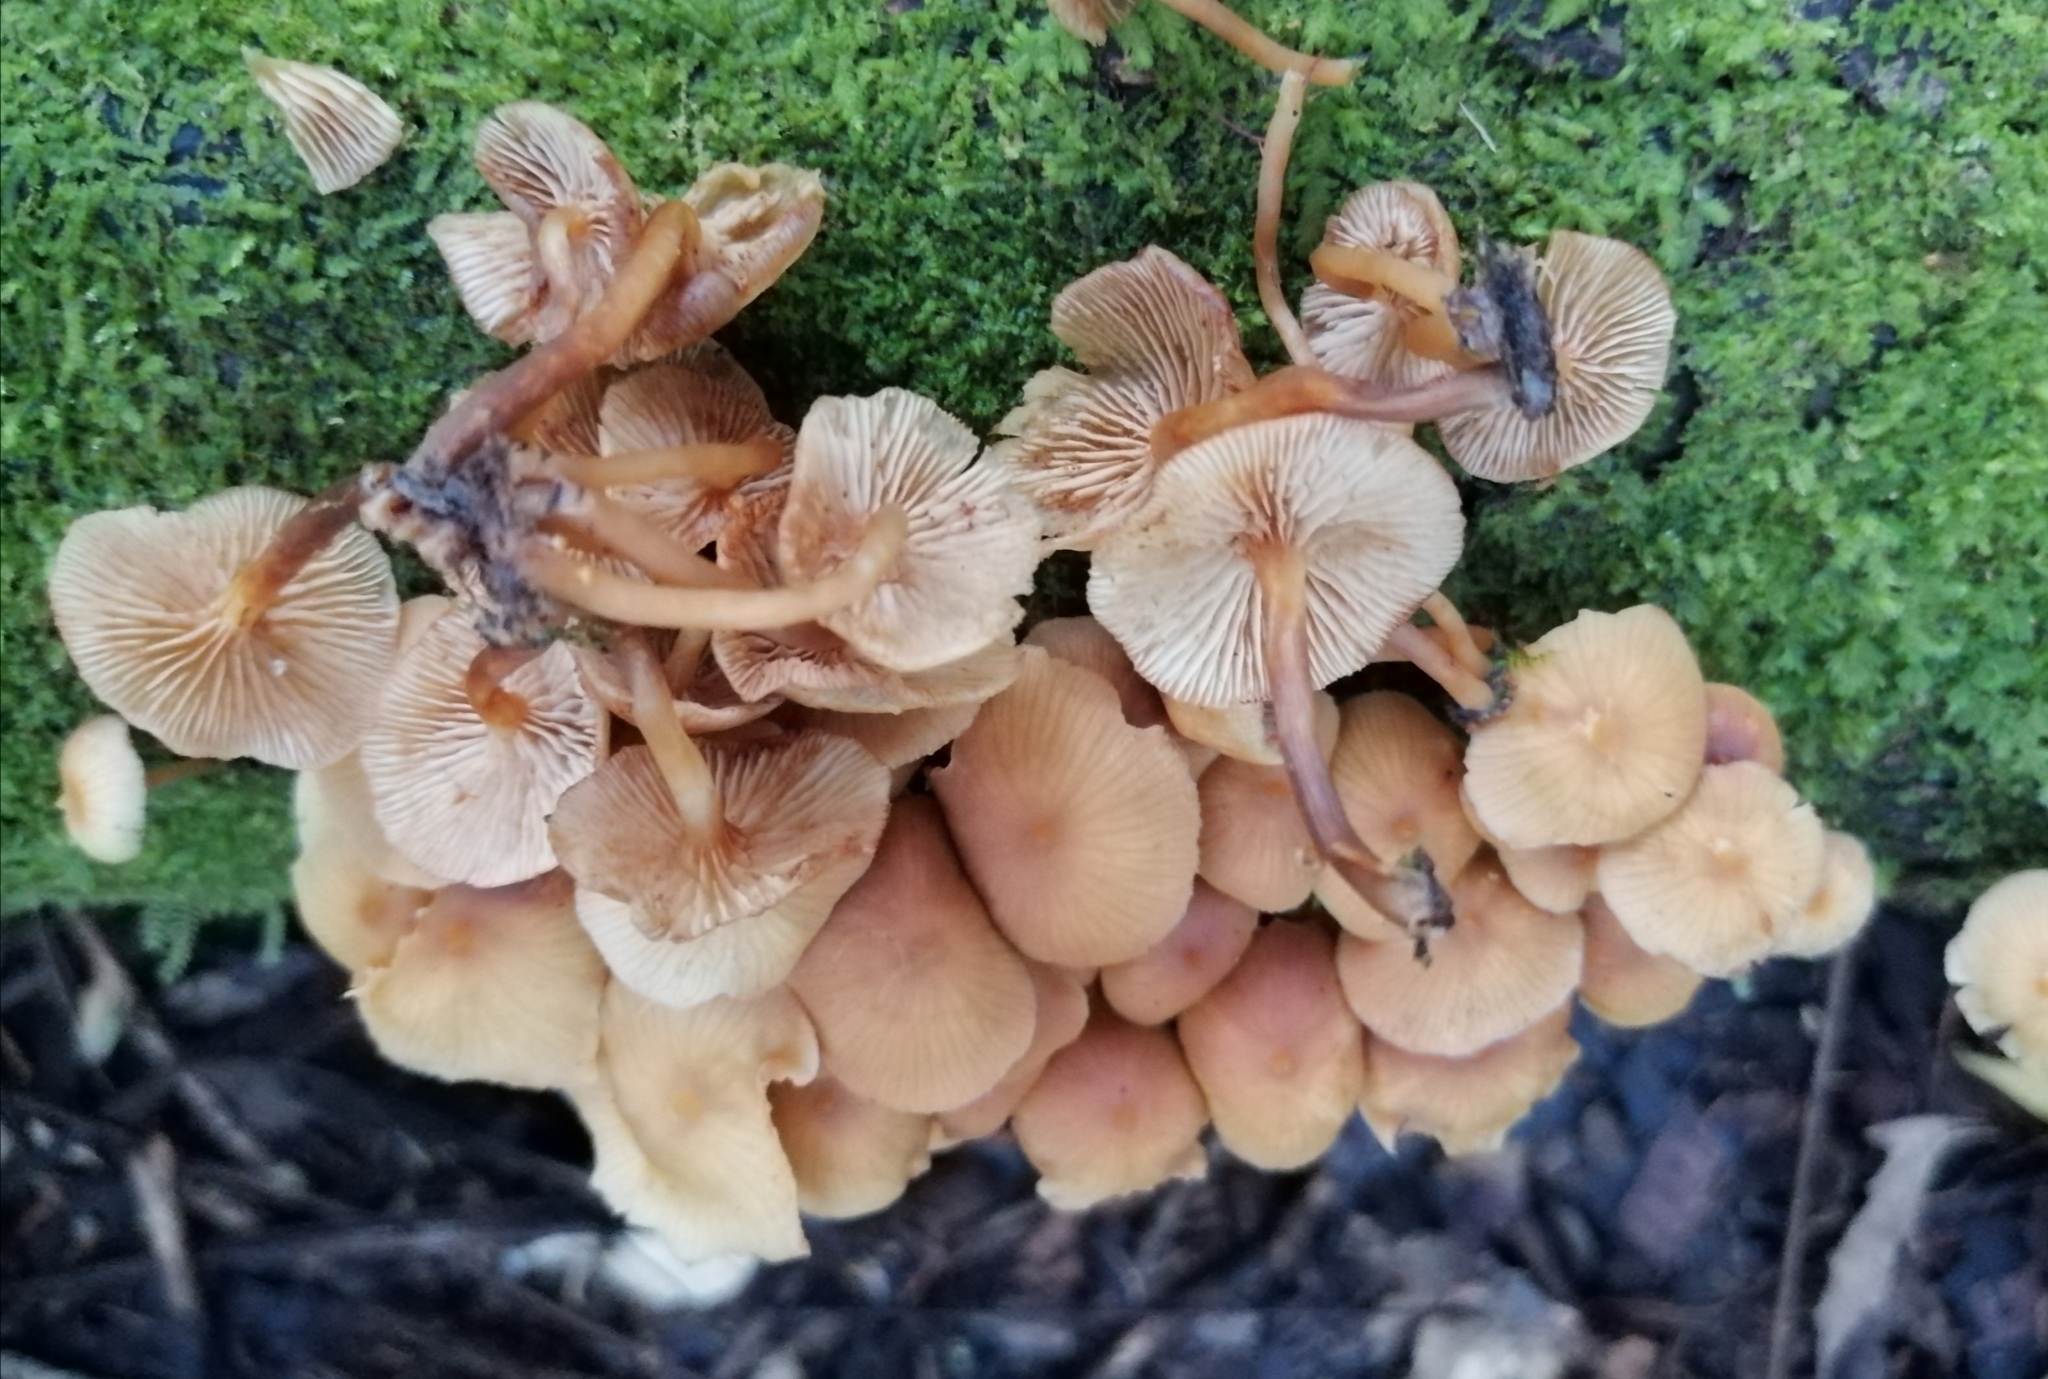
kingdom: Fungi
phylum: Basidiomycota
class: Agaricomycetes
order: Agaricales
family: Hymenogastraceae
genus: Galerina
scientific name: Galerina velutipes
